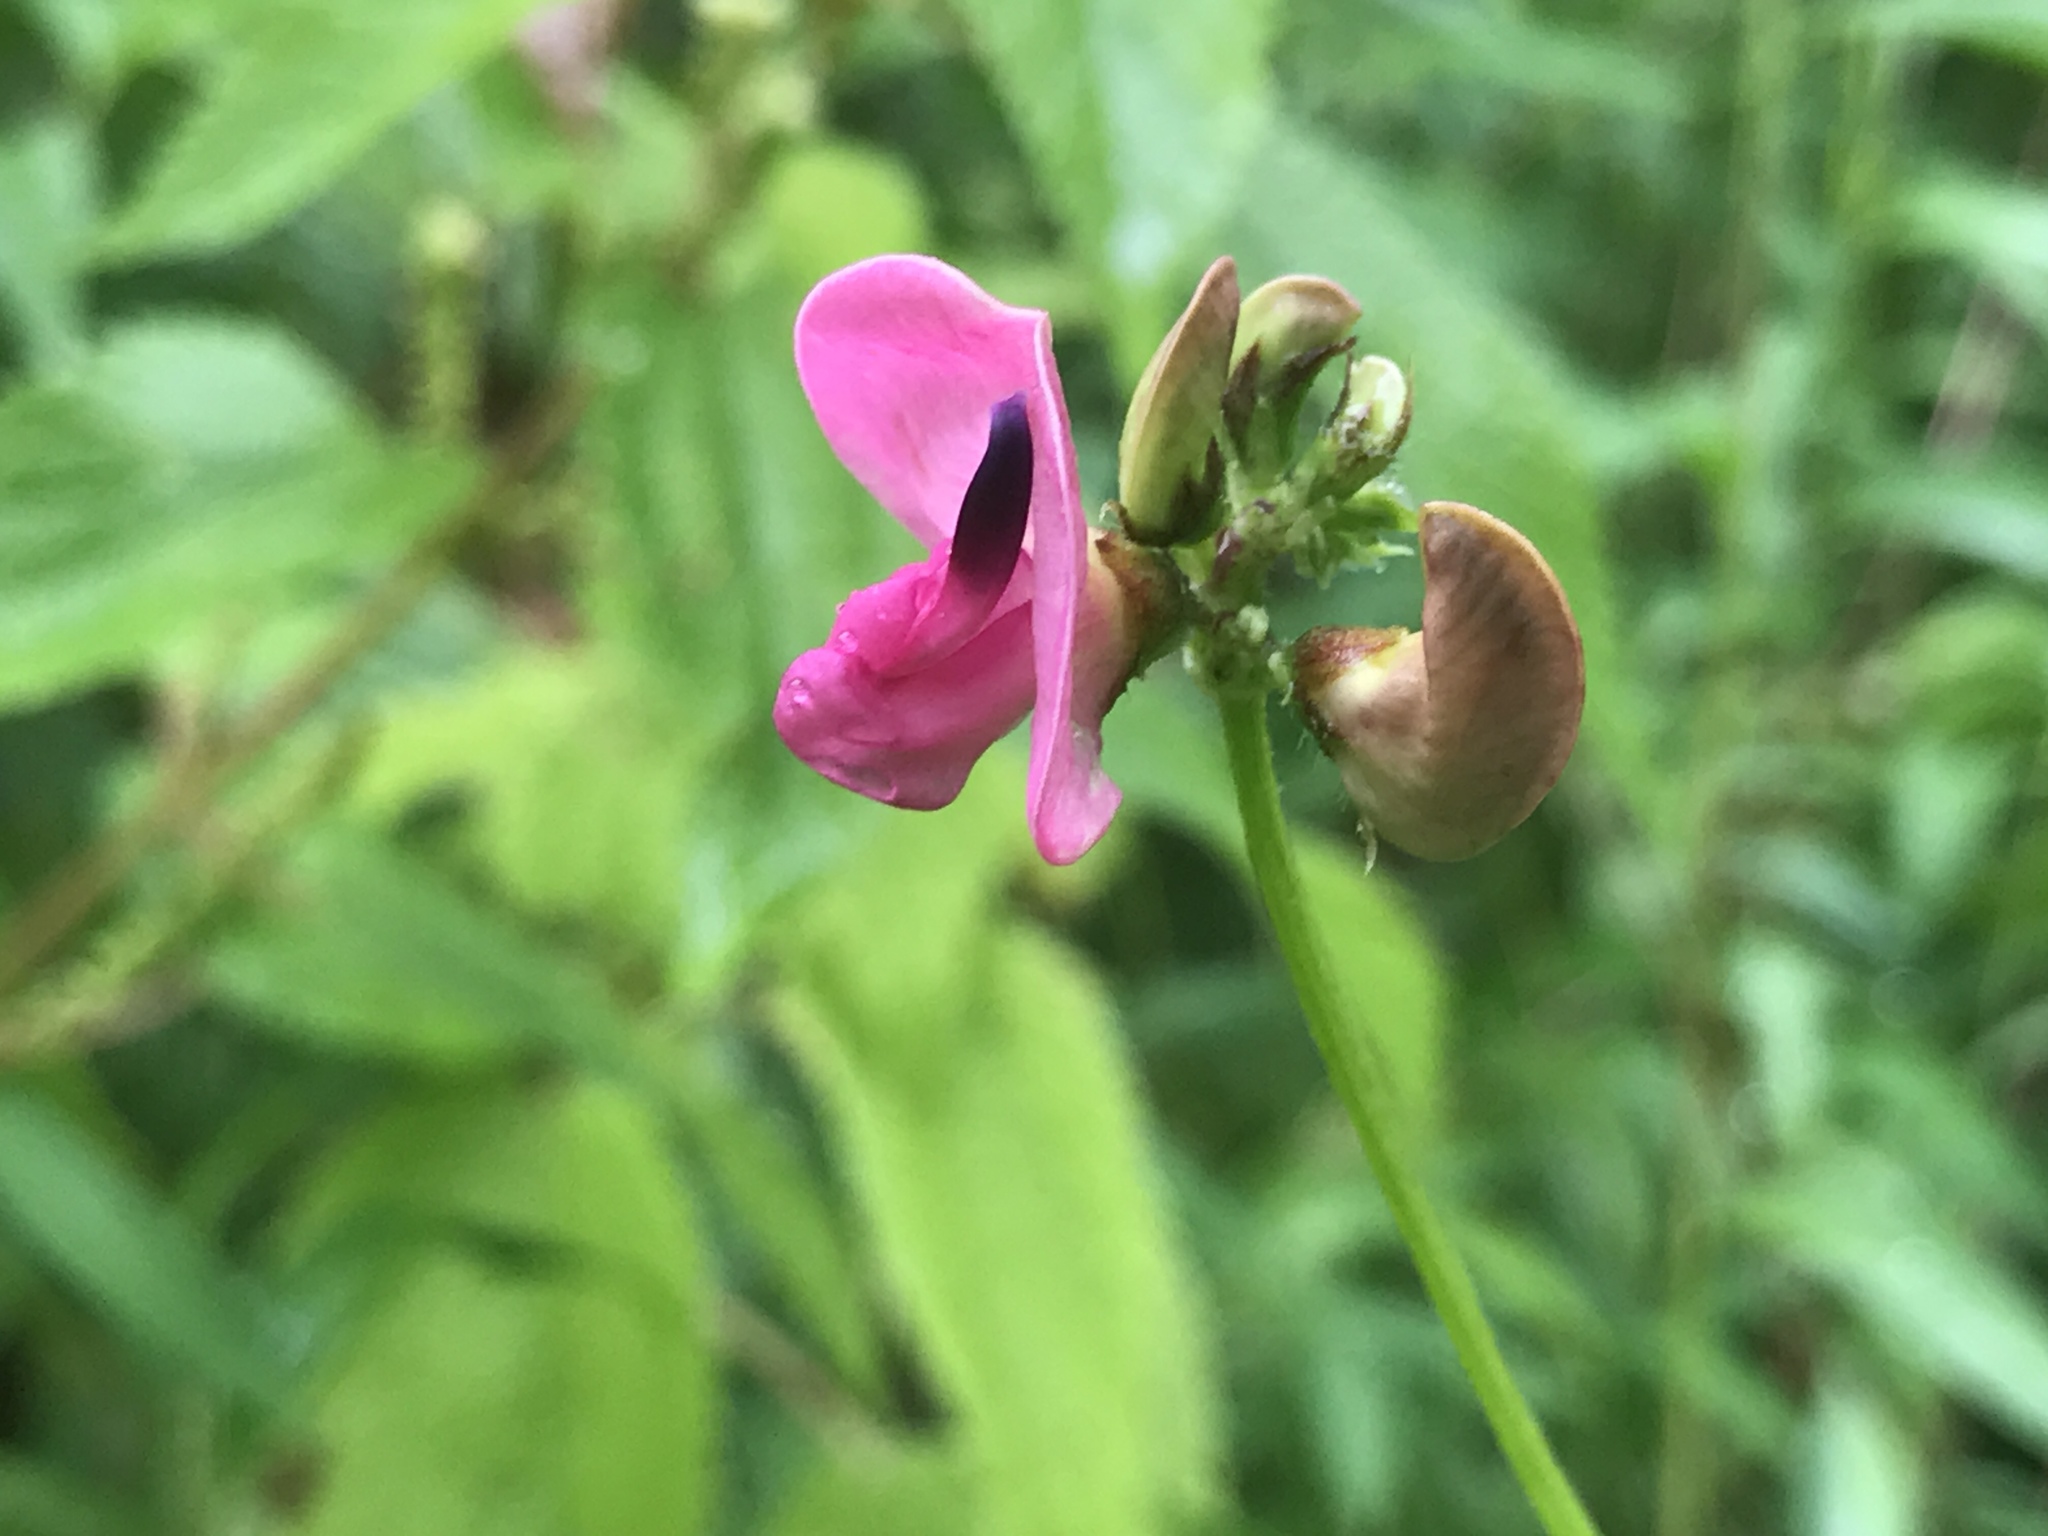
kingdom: Plantae
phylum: Tracheophyta
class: Magnoliopsida
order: Fabales
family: Fabaceae
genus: Strophostyles
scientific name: Strophostyles umbellata
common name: Perennial wild bean
